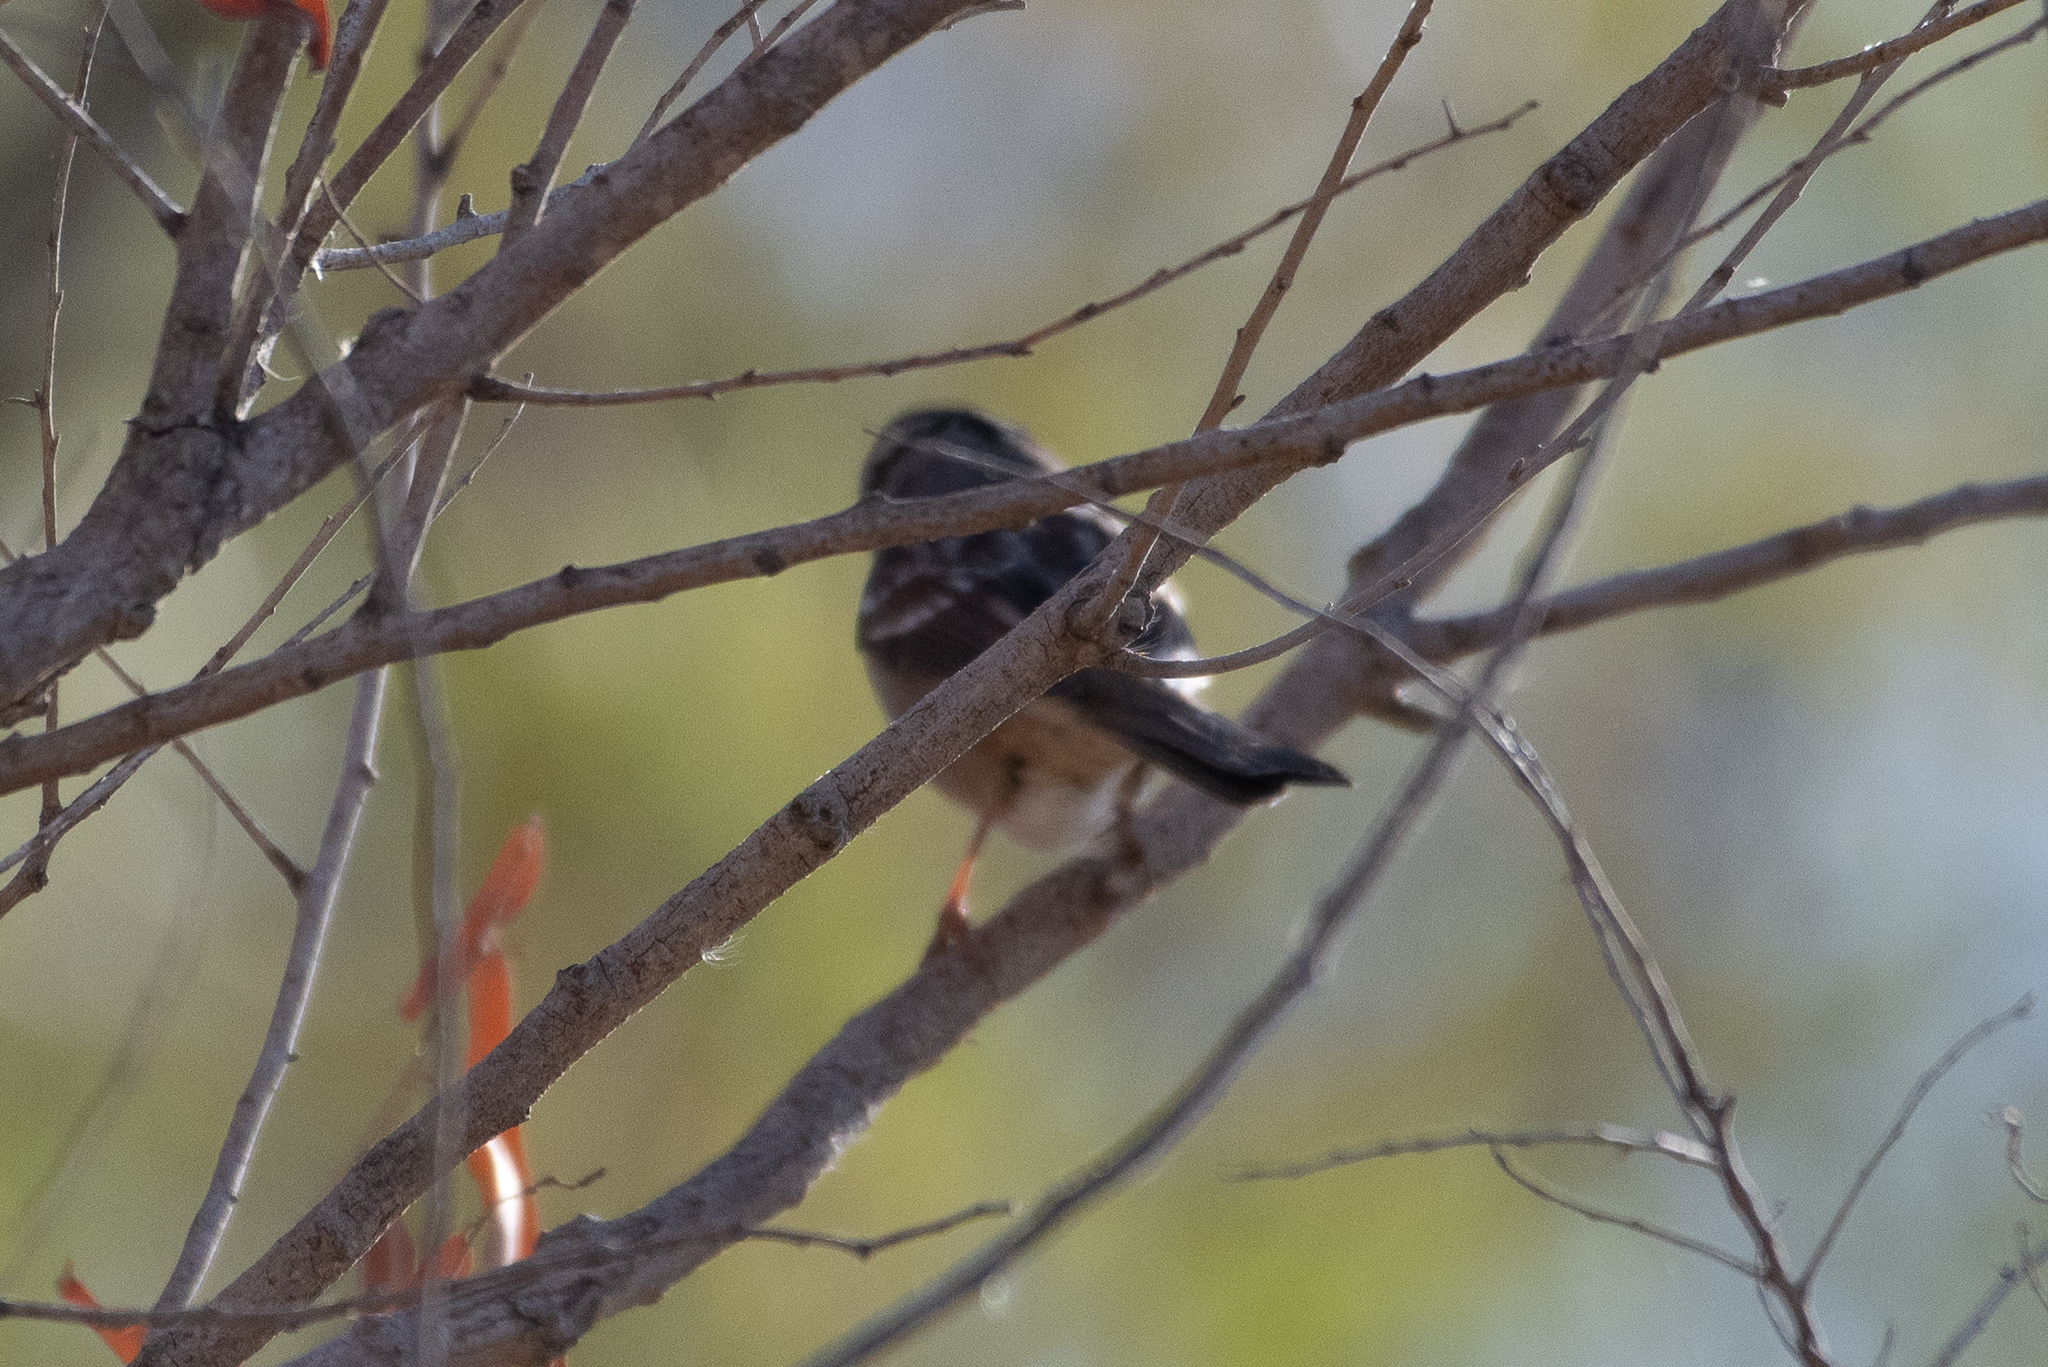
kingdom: Animalia
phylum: Chordata
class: Aves
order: Passeriformes
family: Passerellidae
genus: Zonotrichia
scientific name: Zonotrichia leucophrys
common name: White-crowned sparrow
